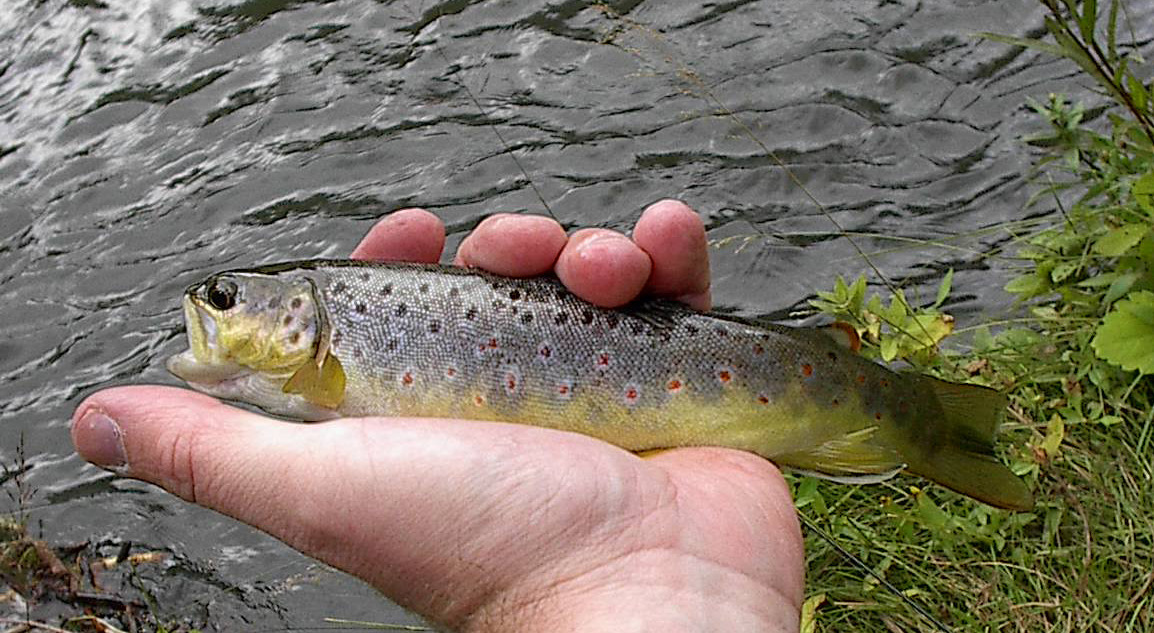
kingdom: Animalia
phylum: Chordata
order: Salmoniformes
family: Salmonidae
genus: Salmo
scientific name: Salmo trutta
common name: Brown trout
